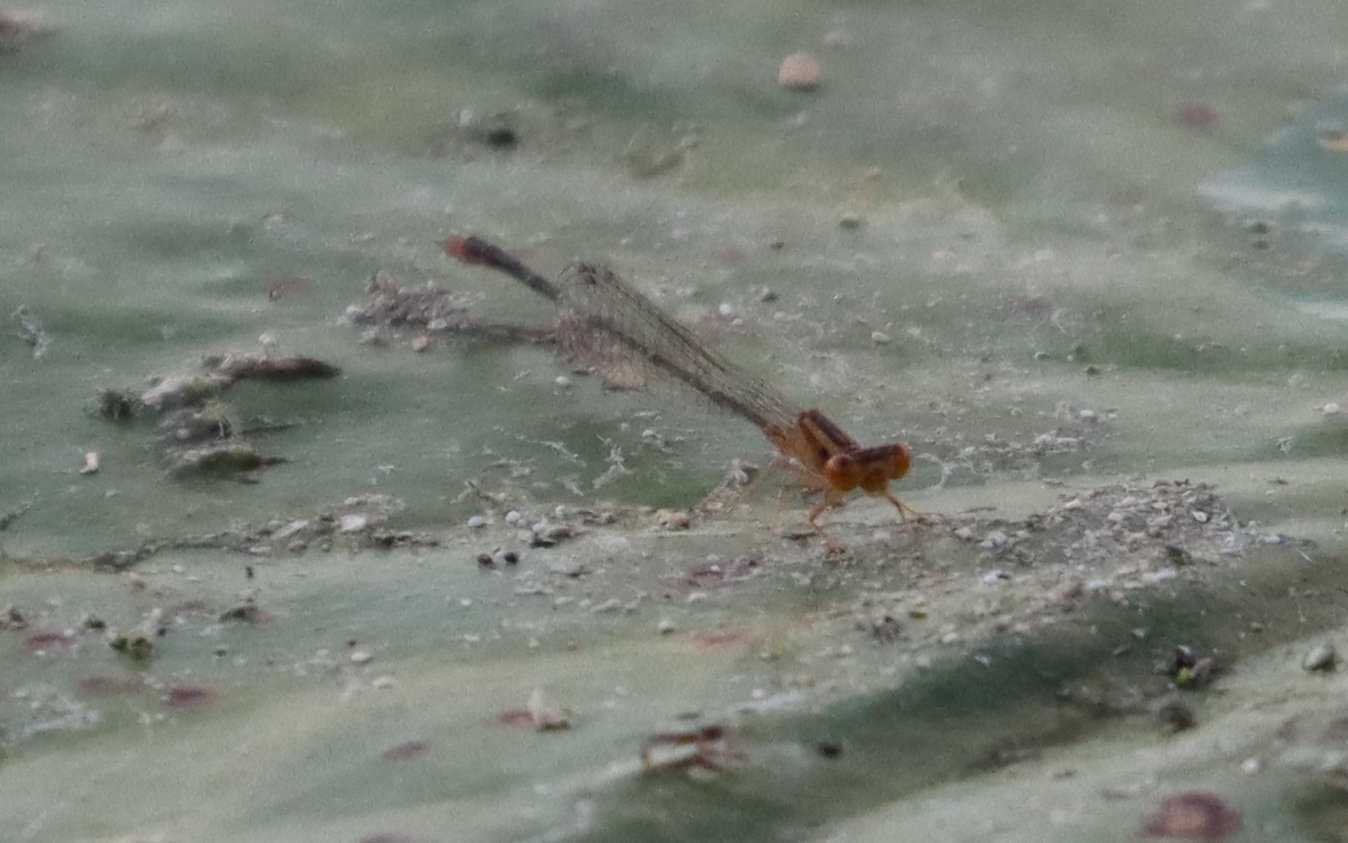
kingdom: Animalia
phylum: Arthropoda
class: Insecta
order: Odonata
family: Coenagrionidae
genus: Enallagma
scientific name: Enallagma signatum
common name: Orange bluet
